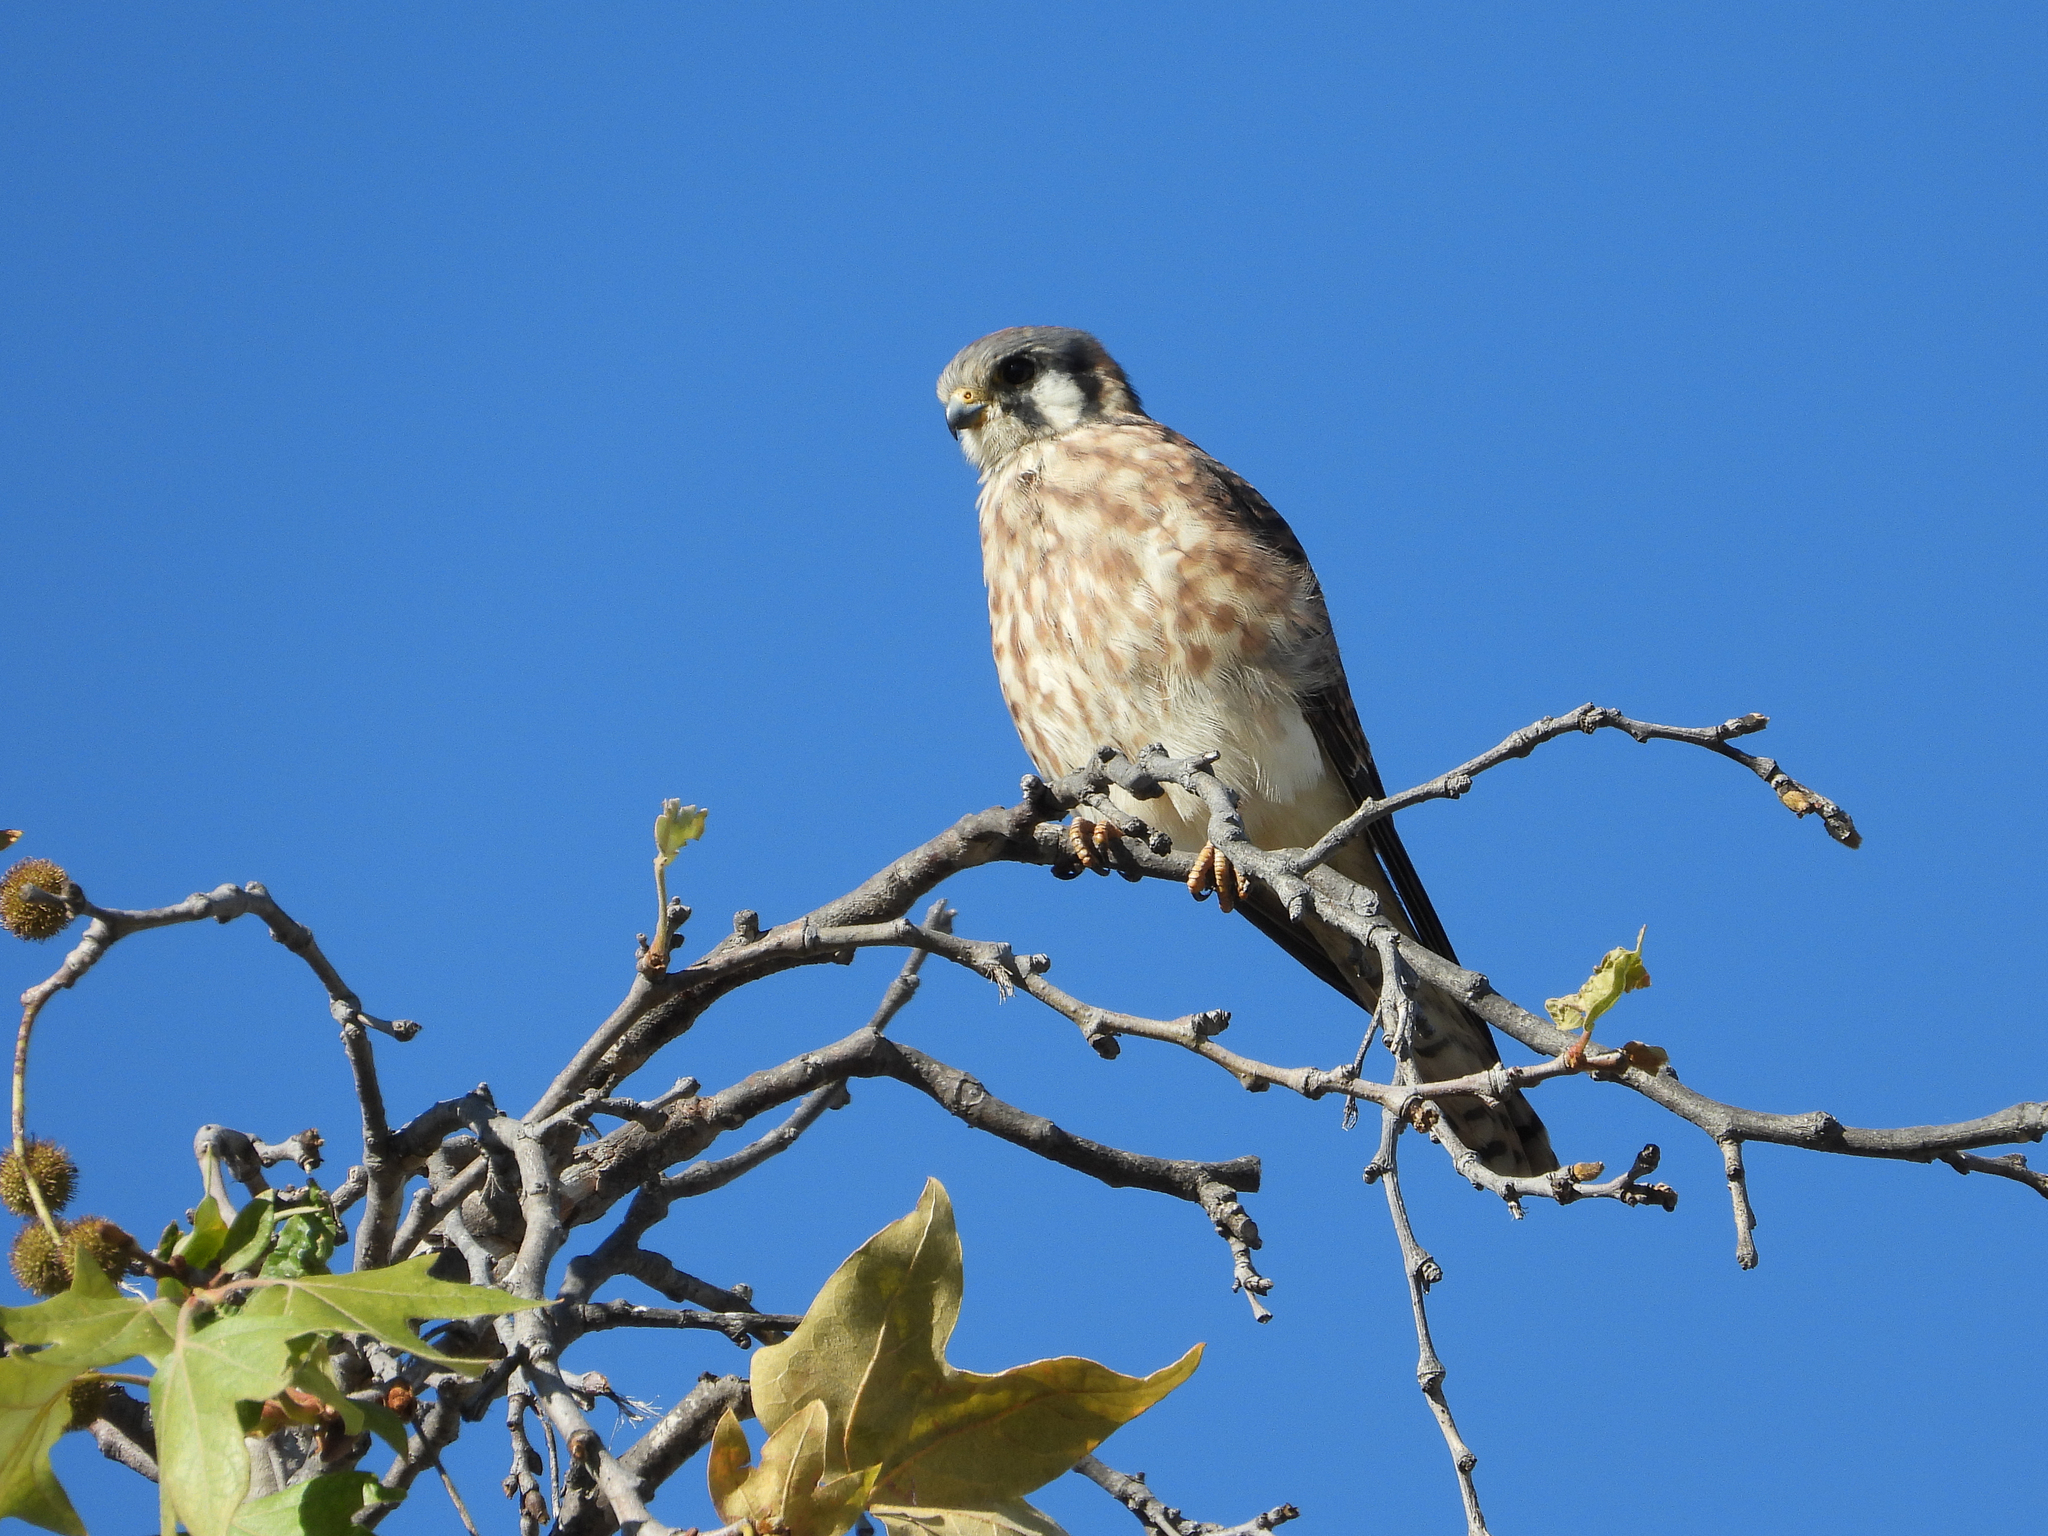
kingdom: Animalia
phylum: Chordata
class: Aves
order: Falconiformes
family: Falconidae
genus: Falco
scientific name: Falco sparverius
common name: American kestrel
